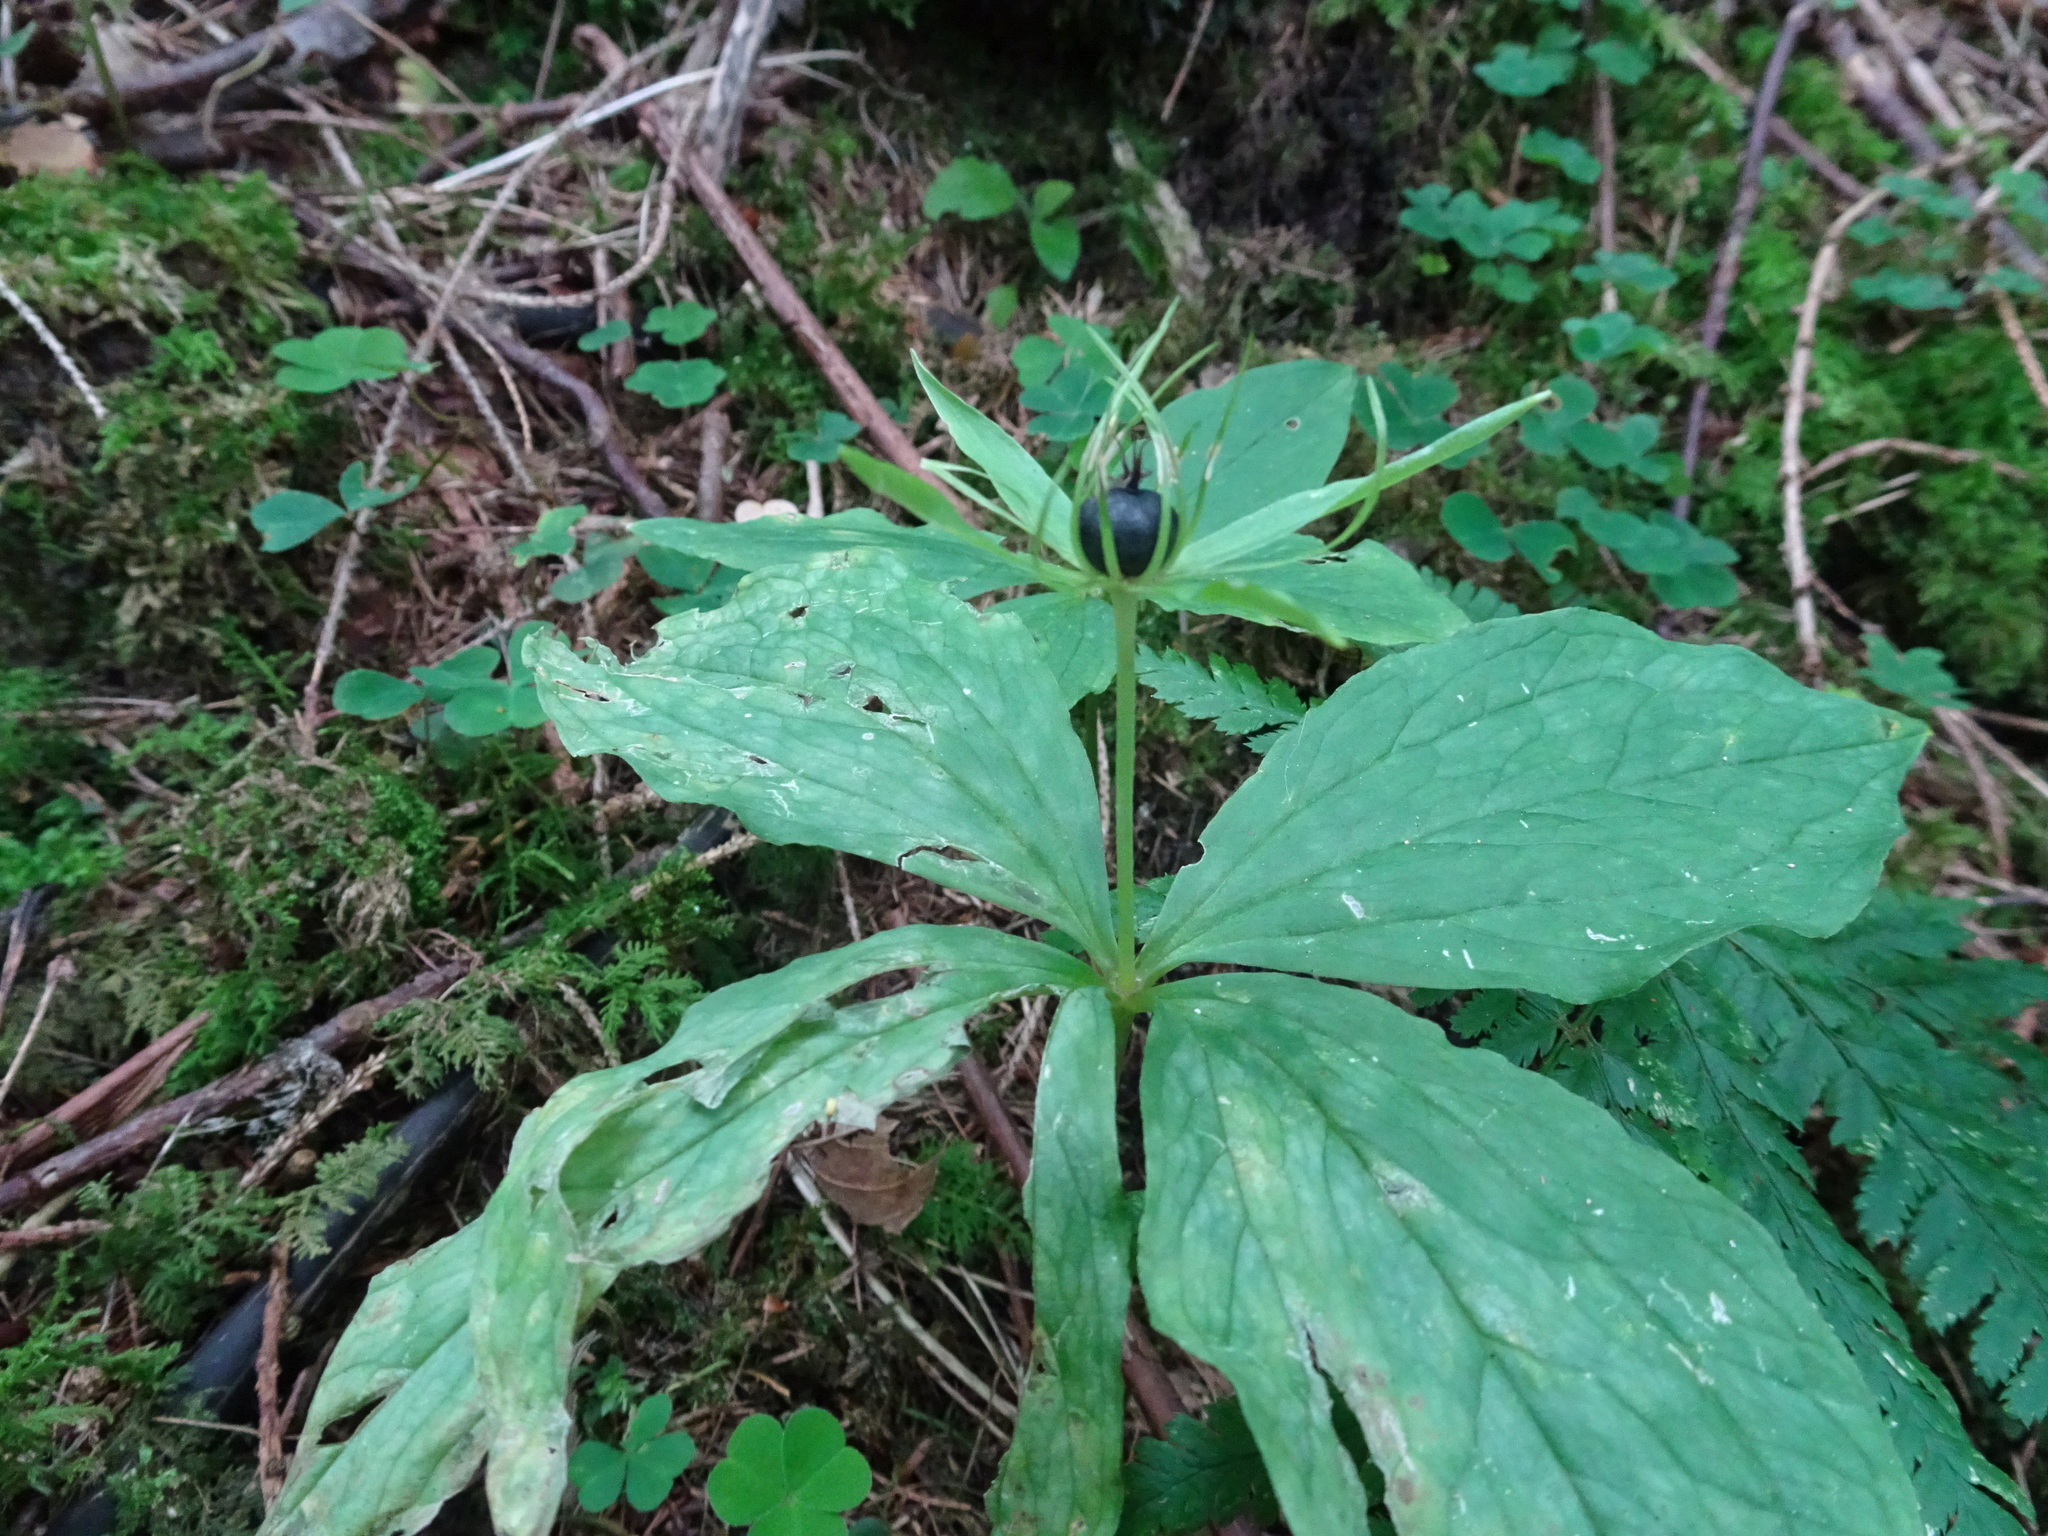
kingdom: Plantae
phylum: Tracheophyta
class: Liliopsida
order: Liliales
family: Melanthiaceae
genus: Paris
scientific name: Paris quadrifolia
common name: Herb-paris
